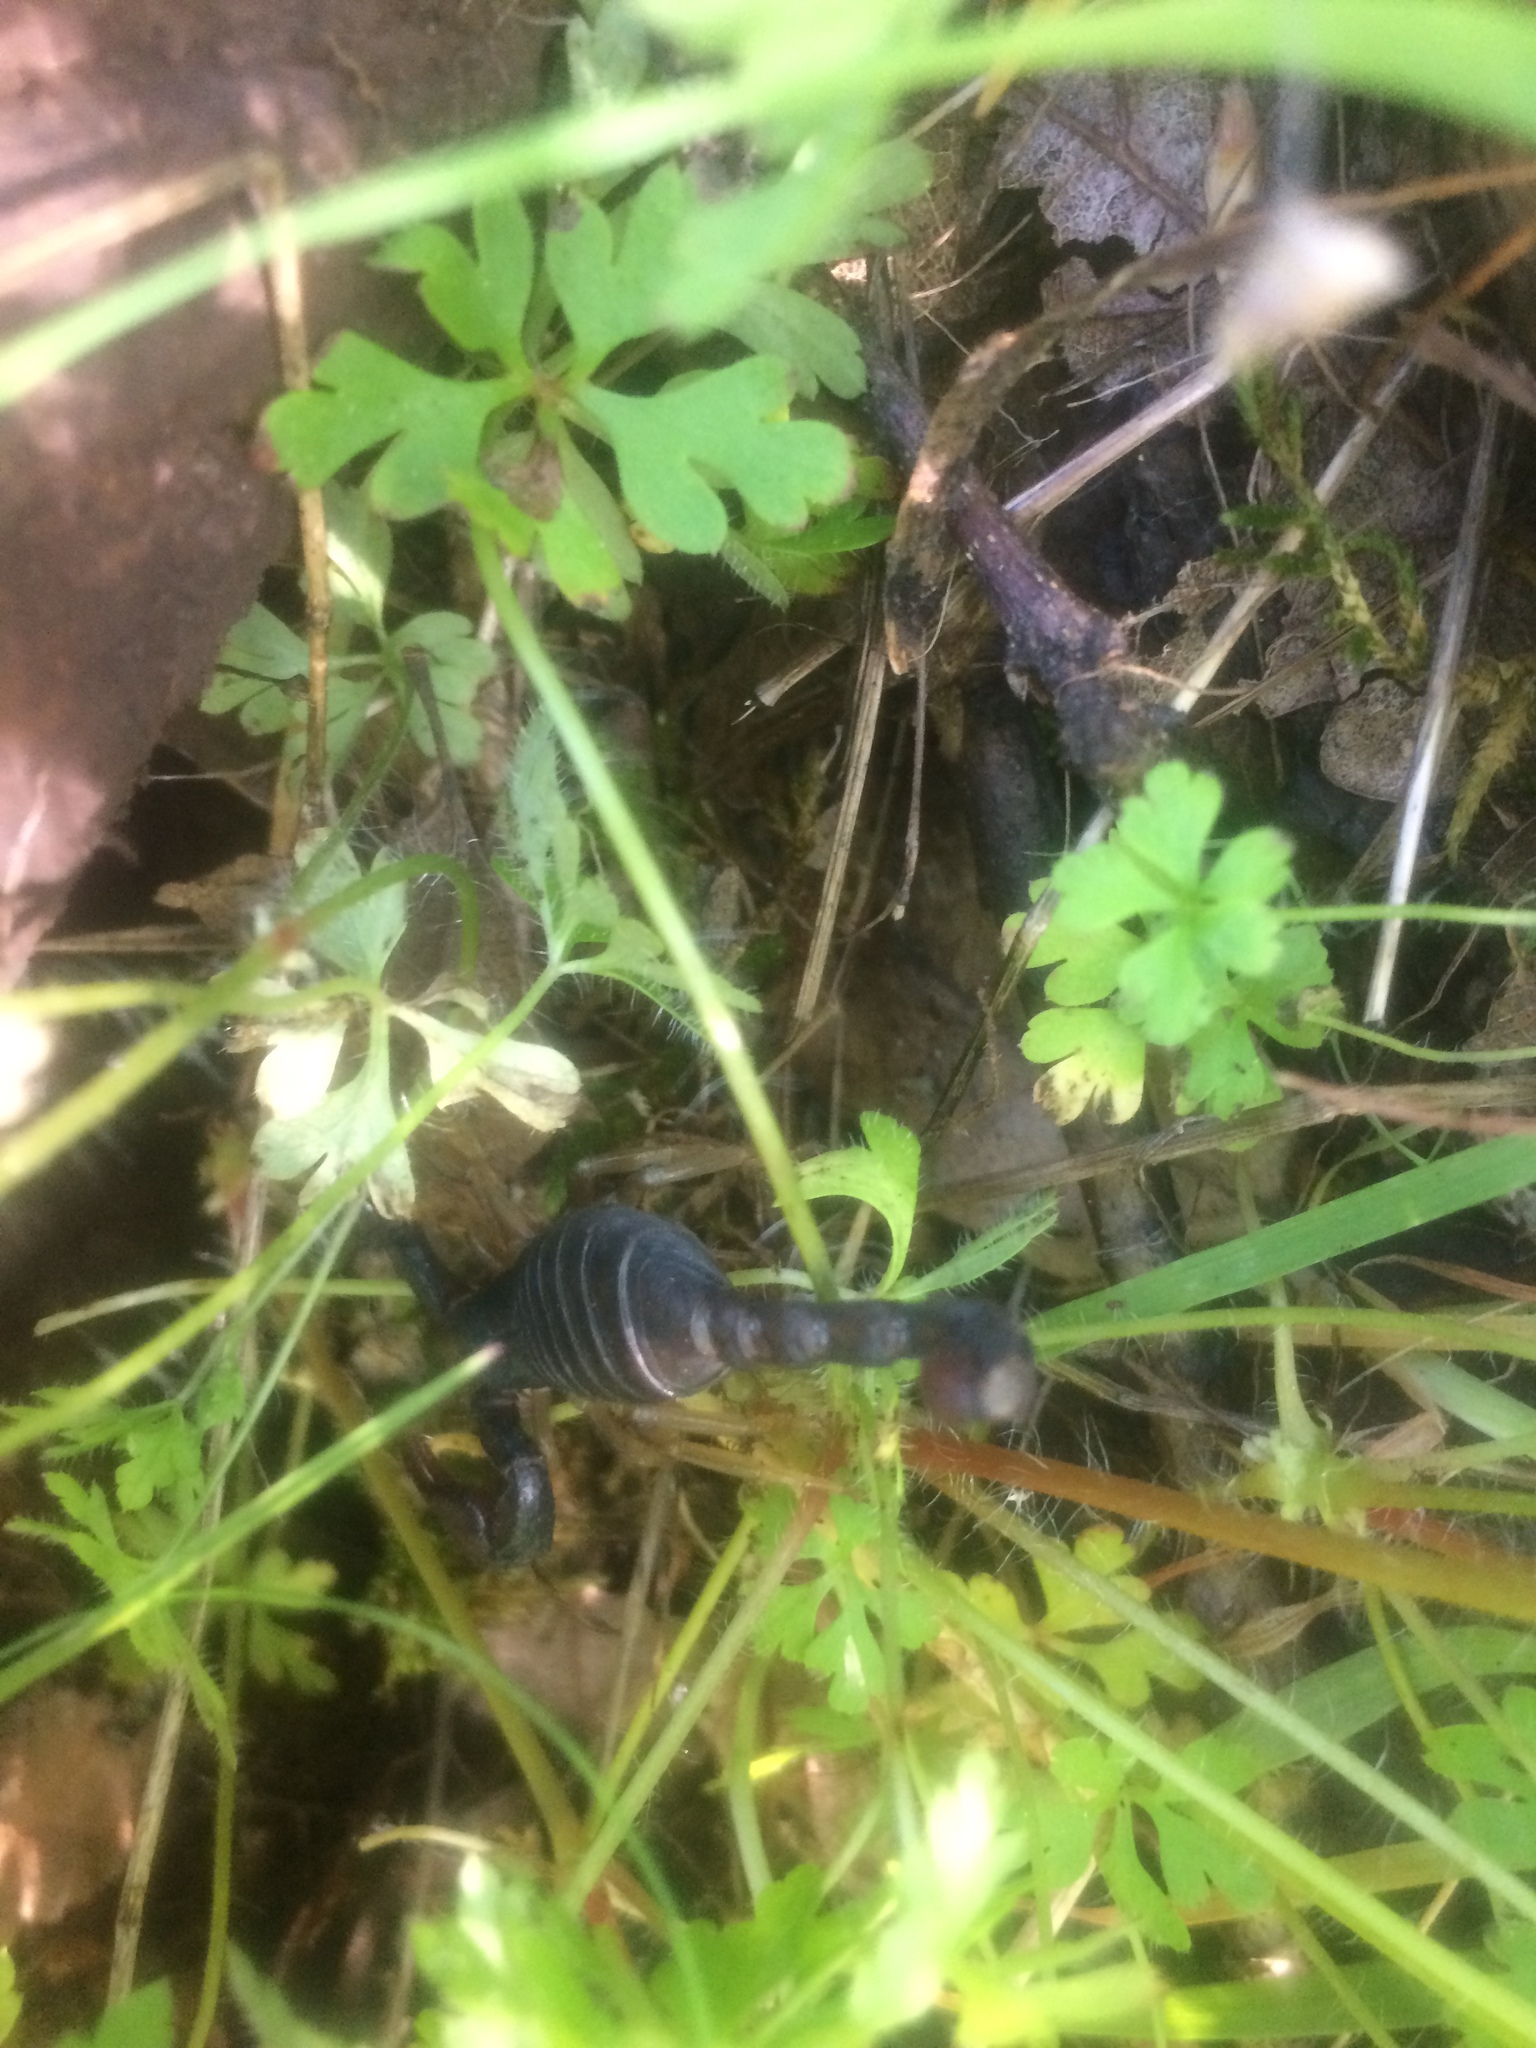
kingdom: Animalia
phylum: Arthropoda
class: Arachnida
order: Scorpiones
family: Chactidae
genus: Uroctonus
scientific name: Uroctonus mordax
